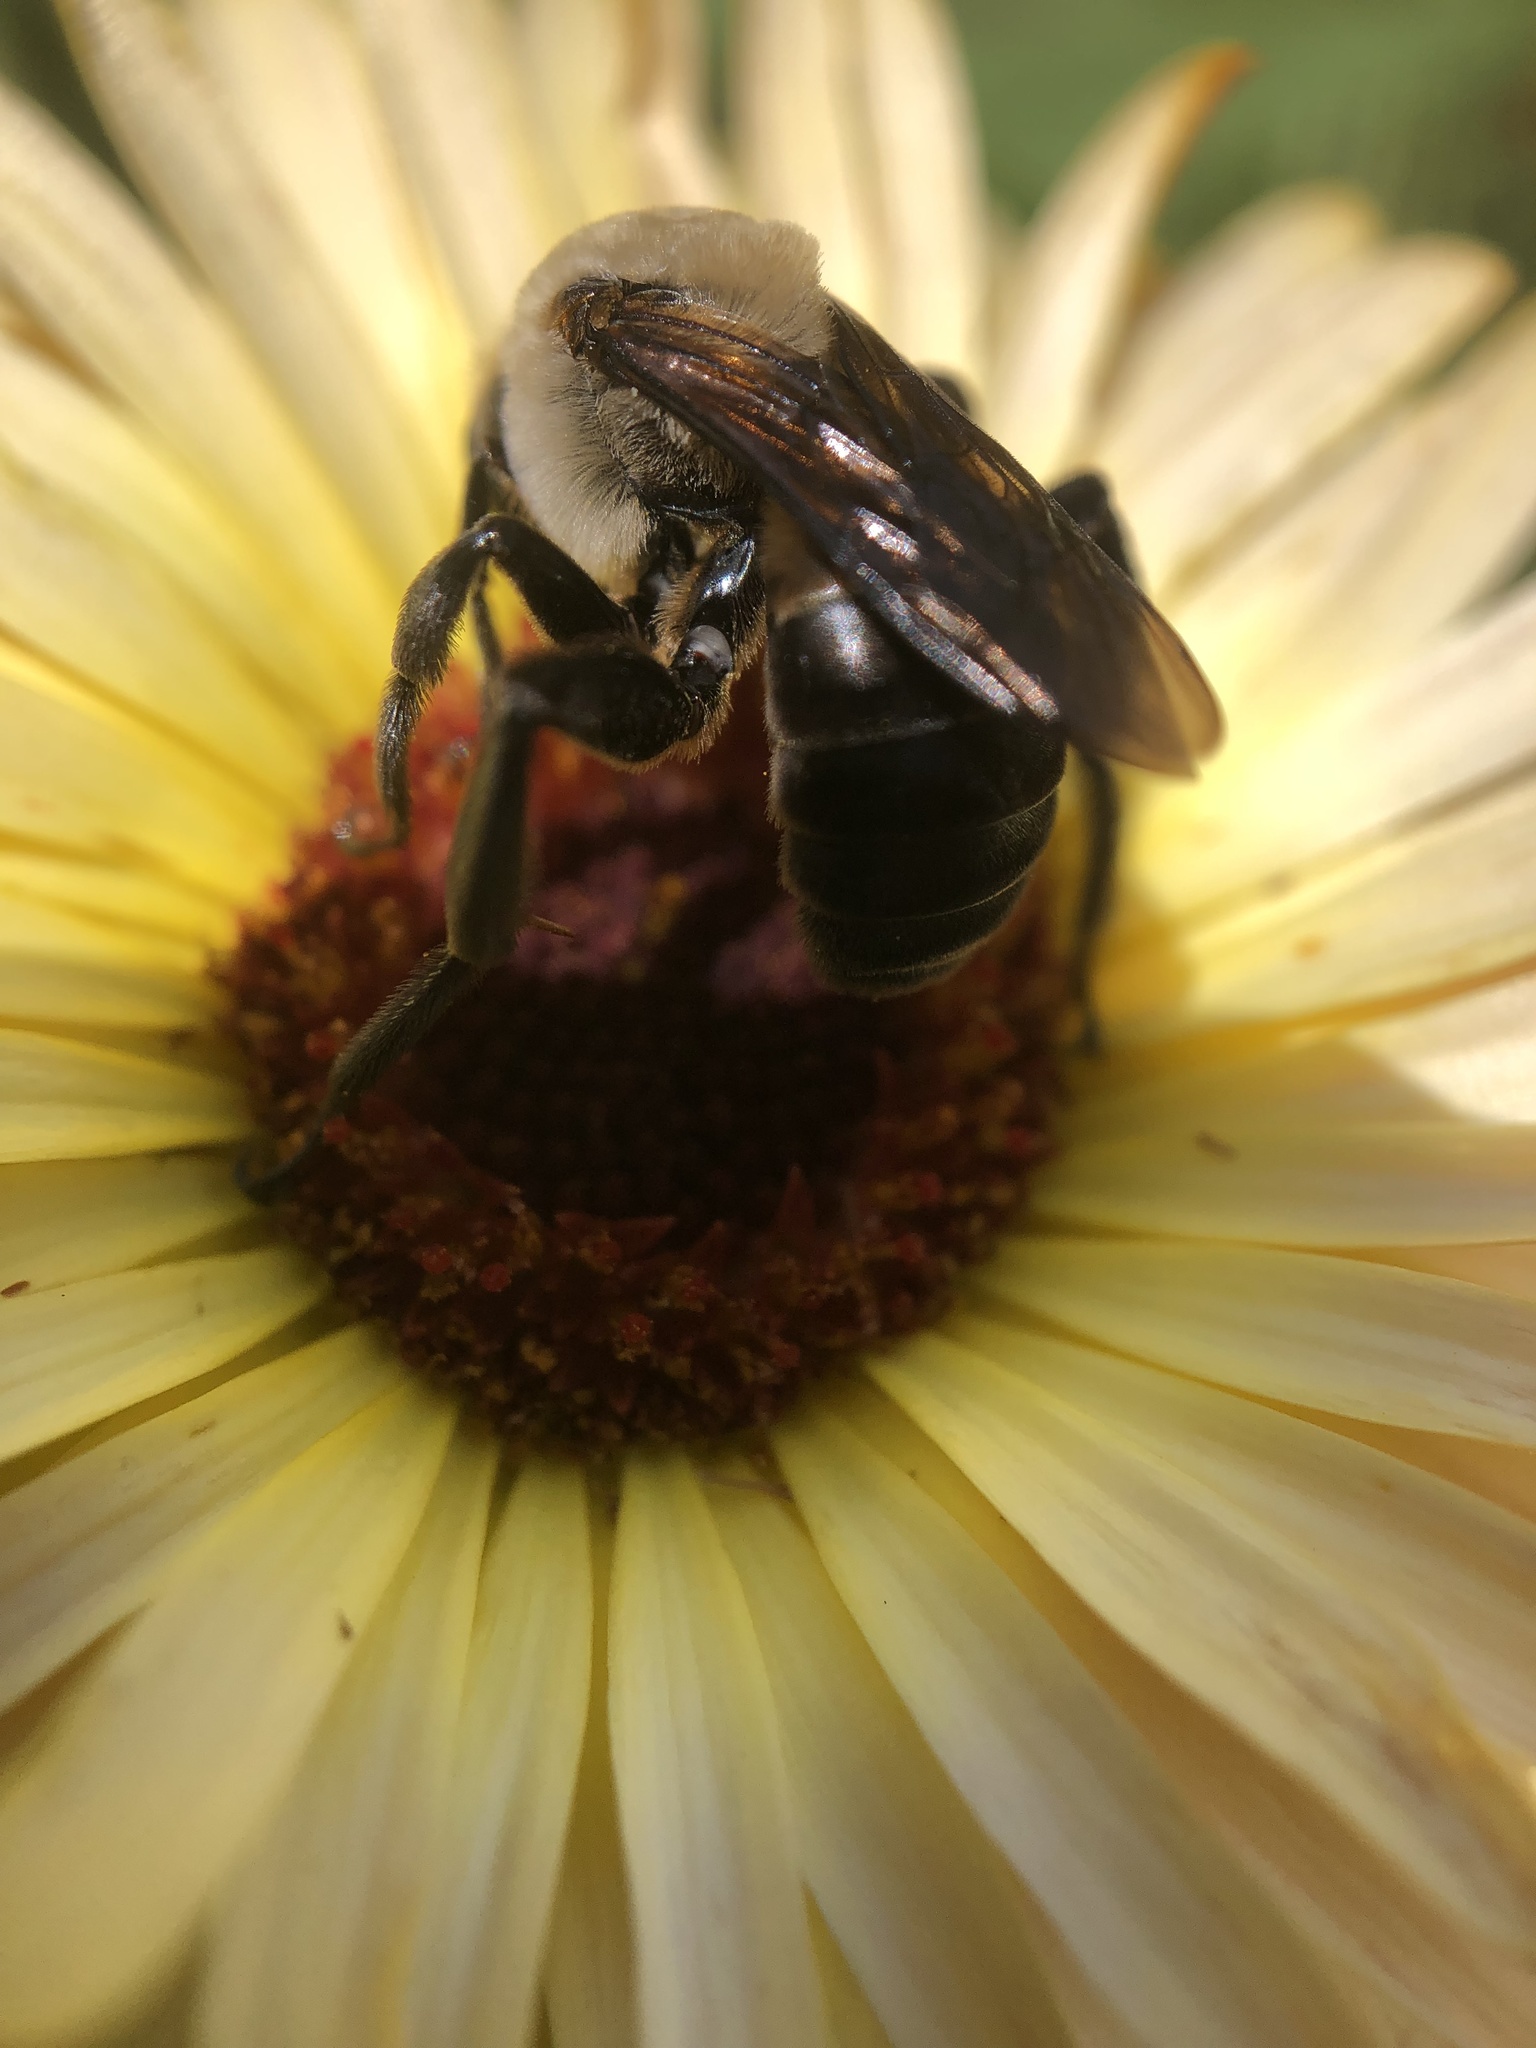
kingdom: Animalia
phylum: Arthropoda
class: Insecta
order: Hymenoptera
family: Apidae
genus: Ptilothrix
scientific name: Ptilothrix bombiformis
